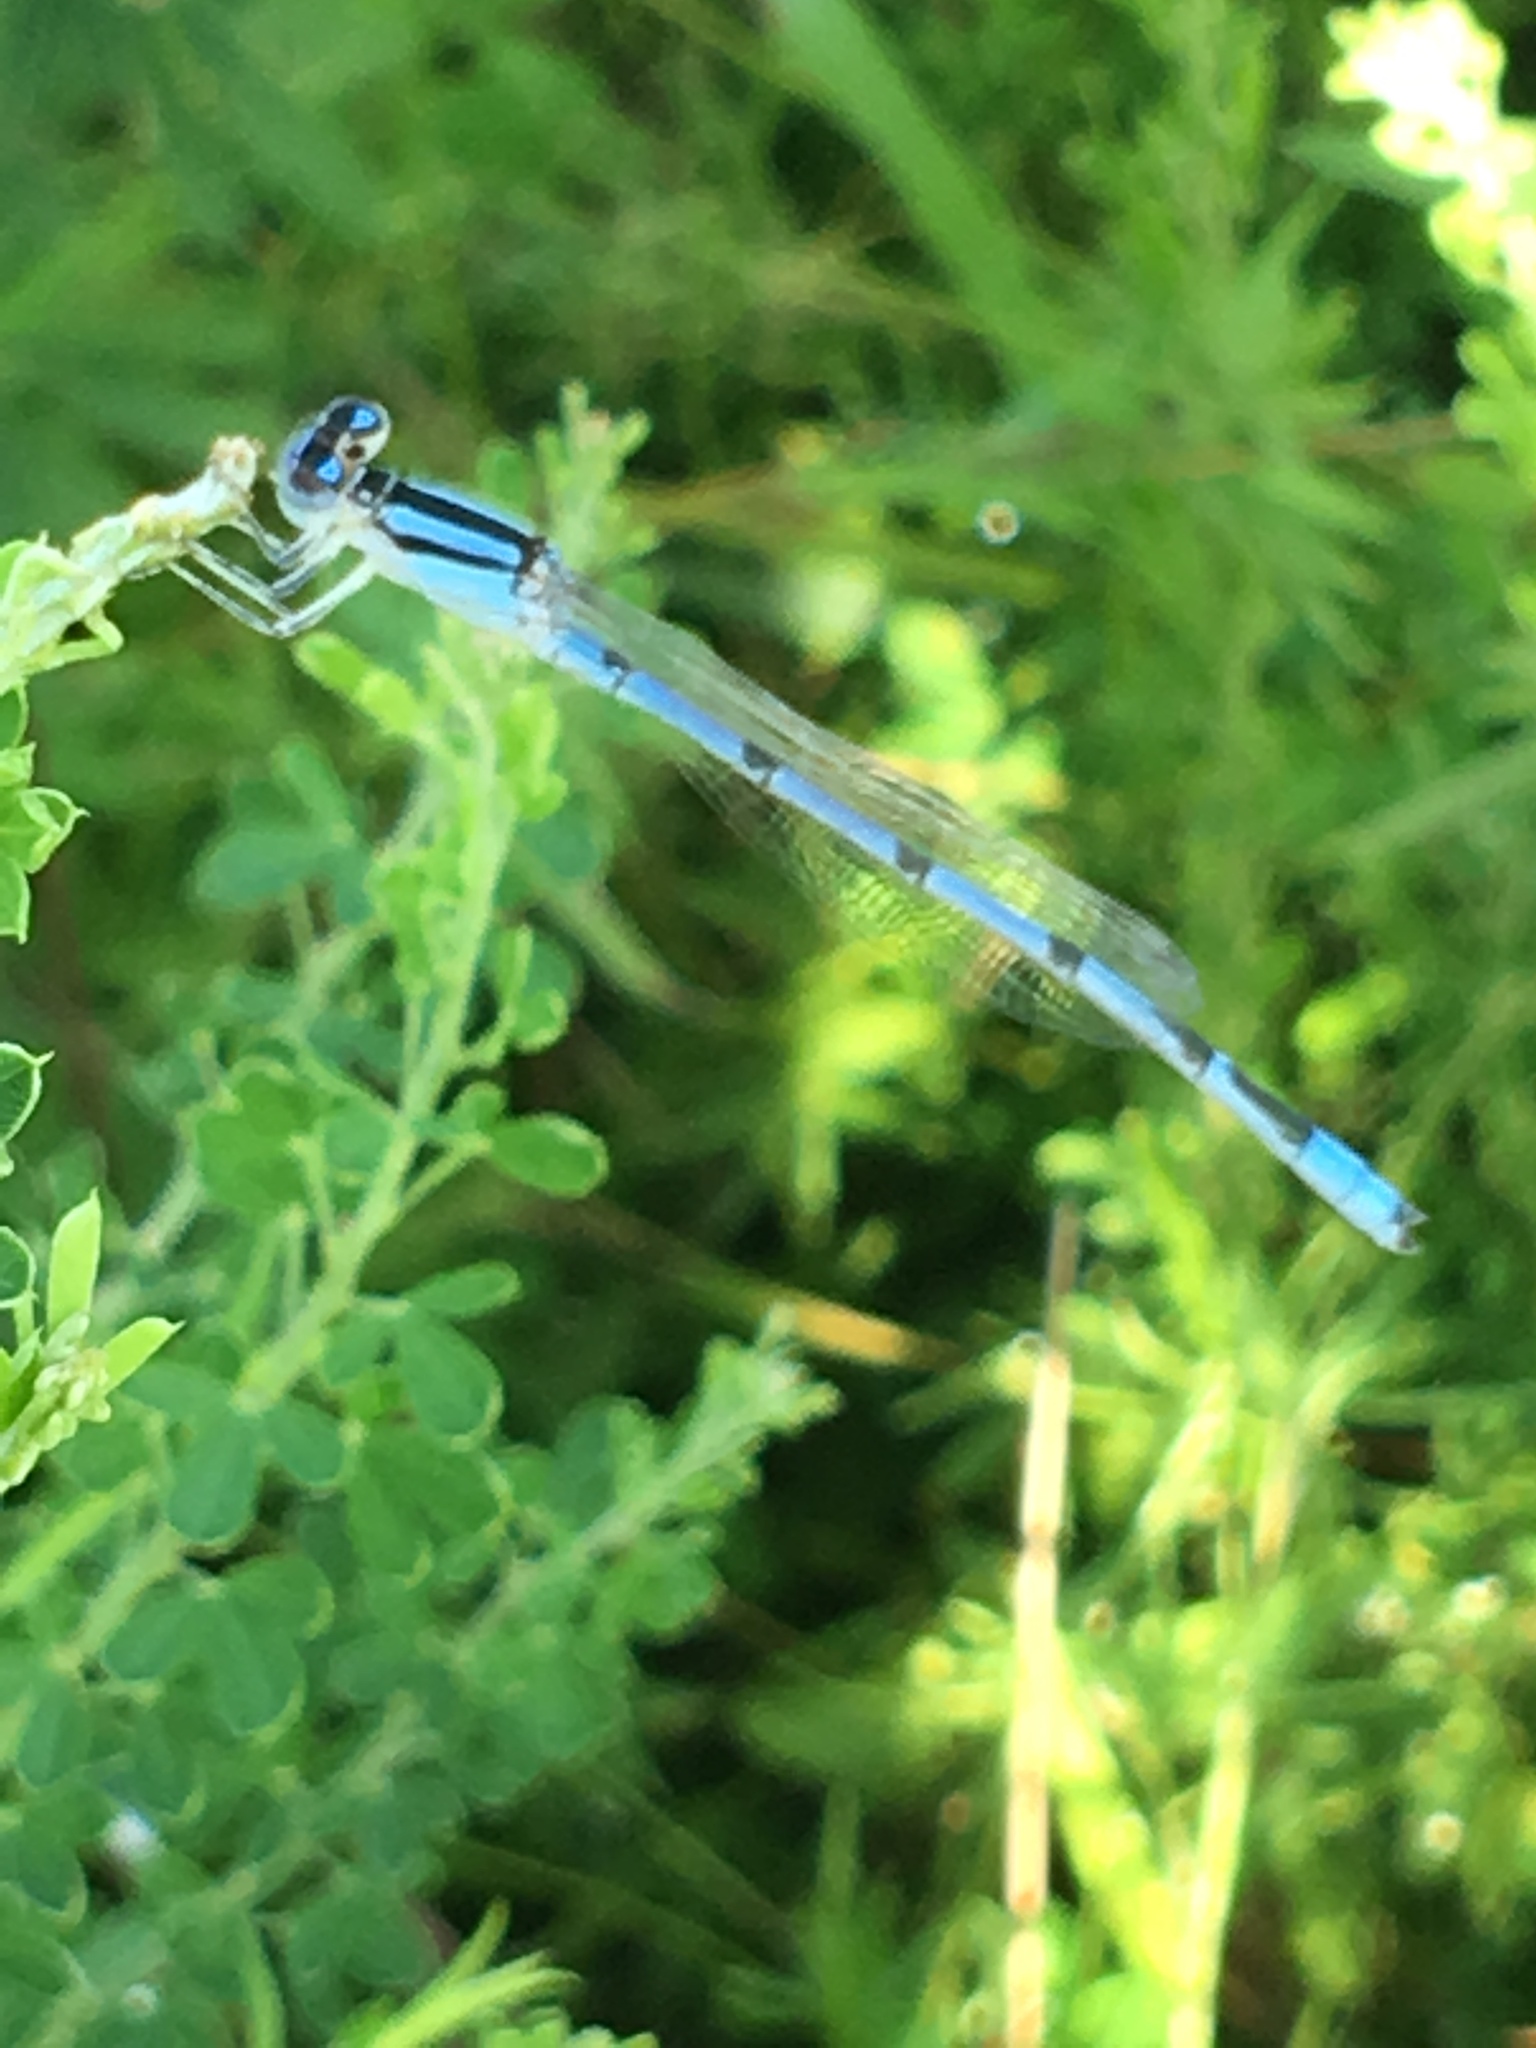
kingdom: Animalia
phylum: Arthropoda
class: Insecta
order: Odonata
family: Coenagrionidae
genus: Enallagma
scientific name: Enallagma civile
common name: Damselfly
